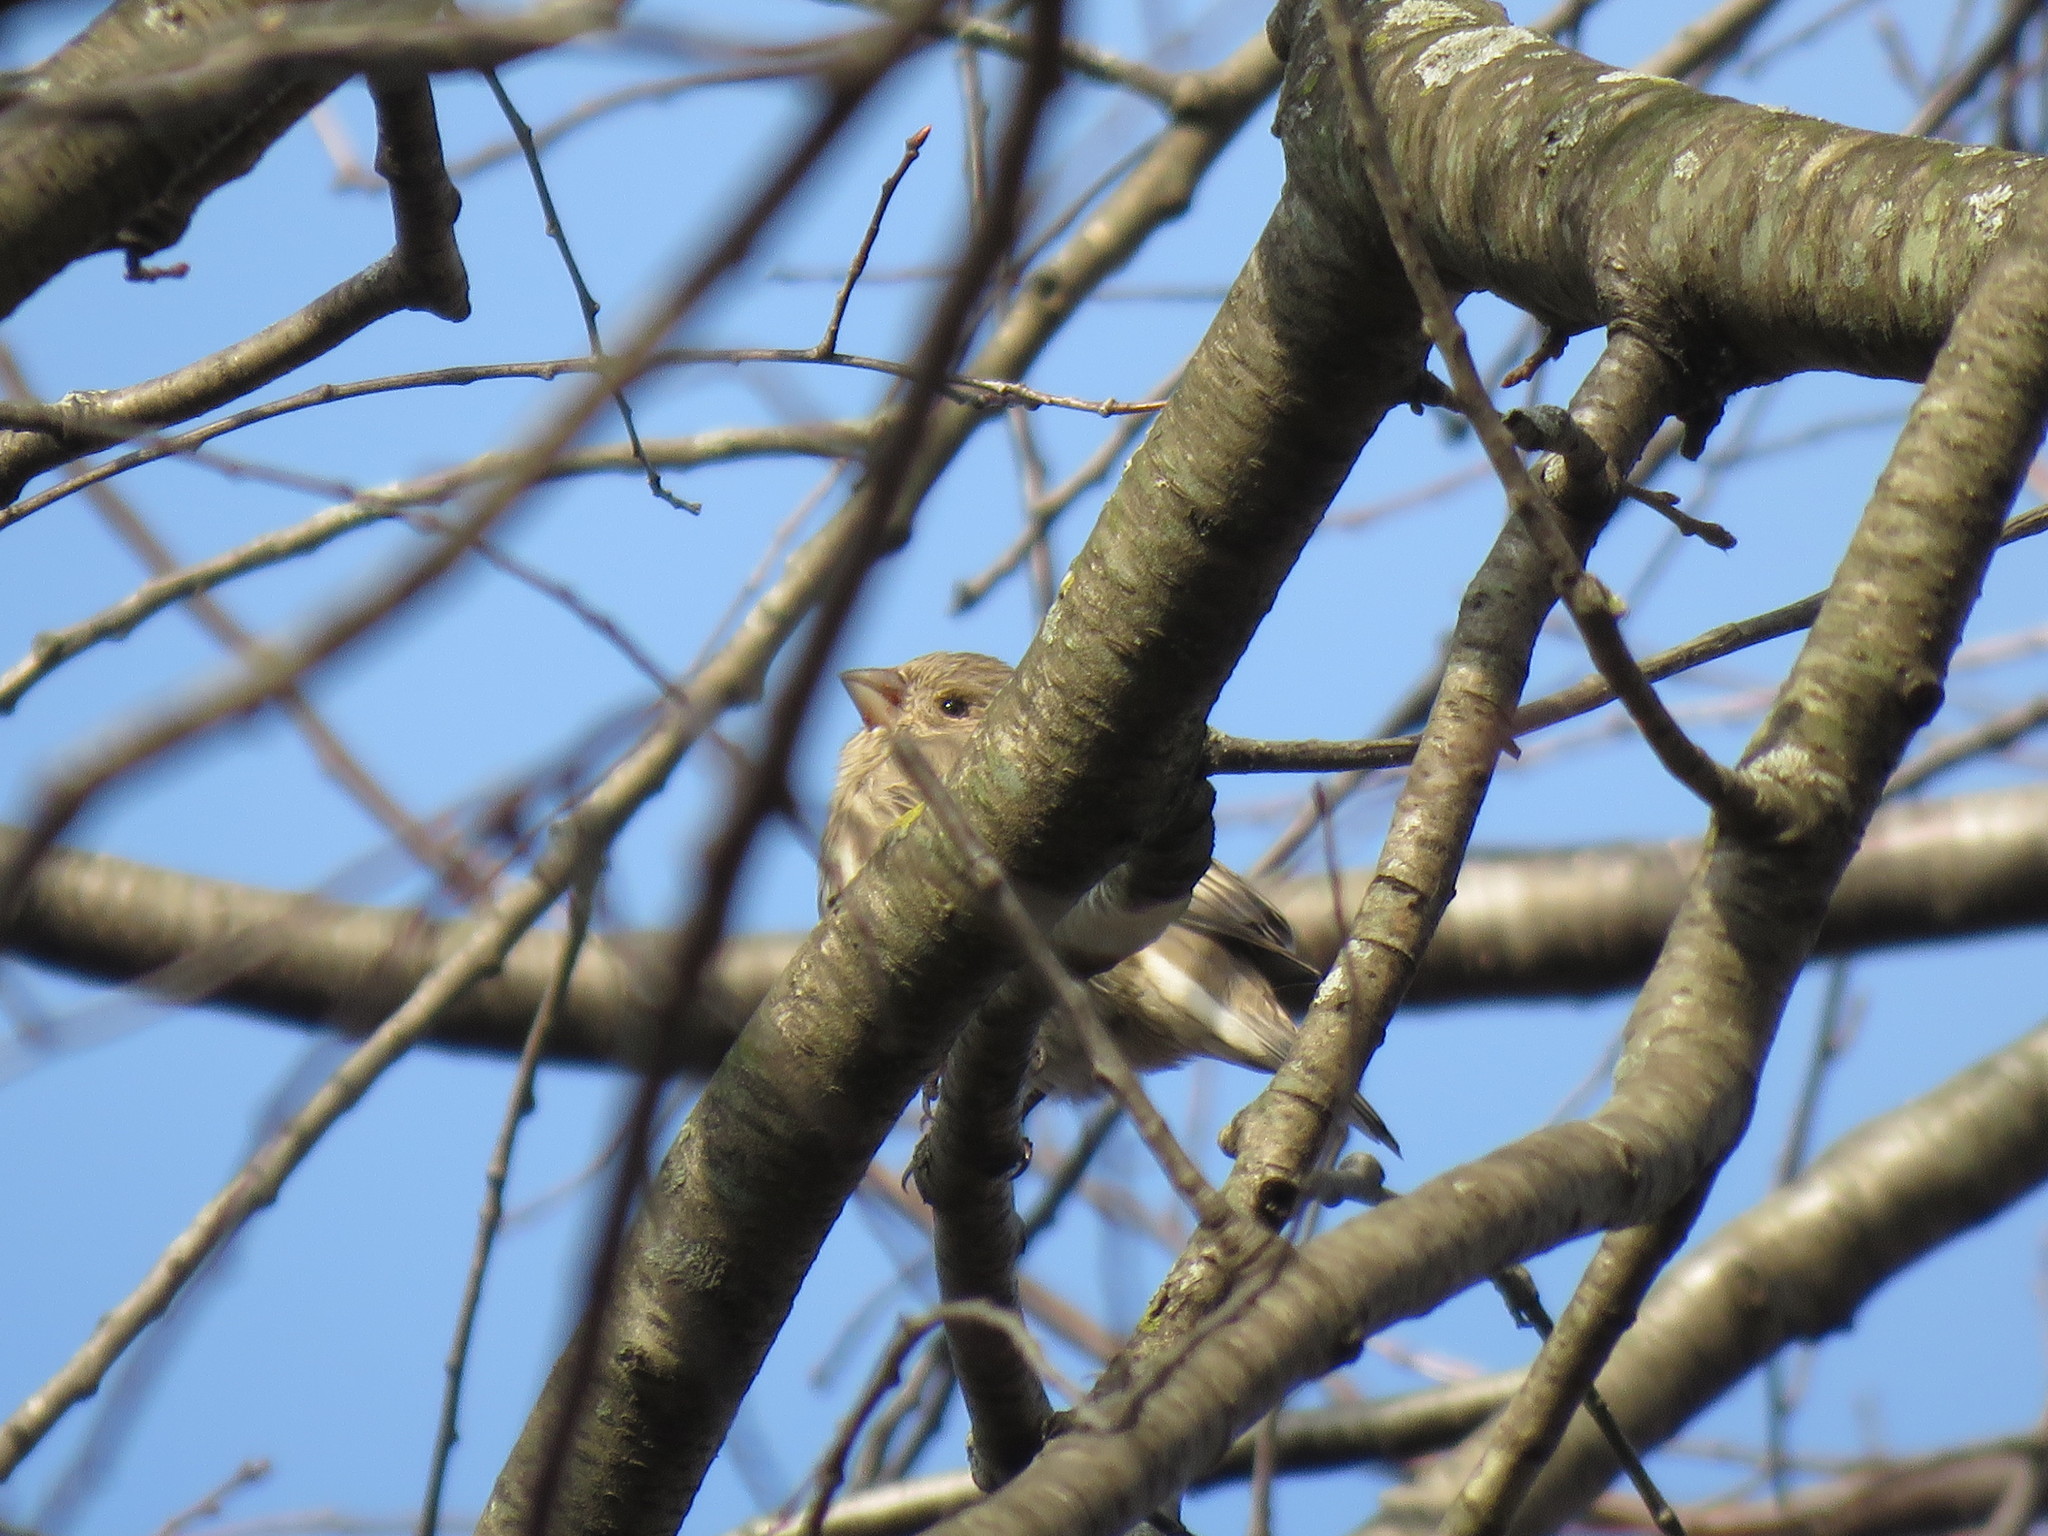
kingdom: Animalia
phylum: Chordata
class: Aves
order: Passeriformes
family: Fringillidae
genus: Haemorhous
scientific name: Haemorhous mexicanus
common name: House finch
